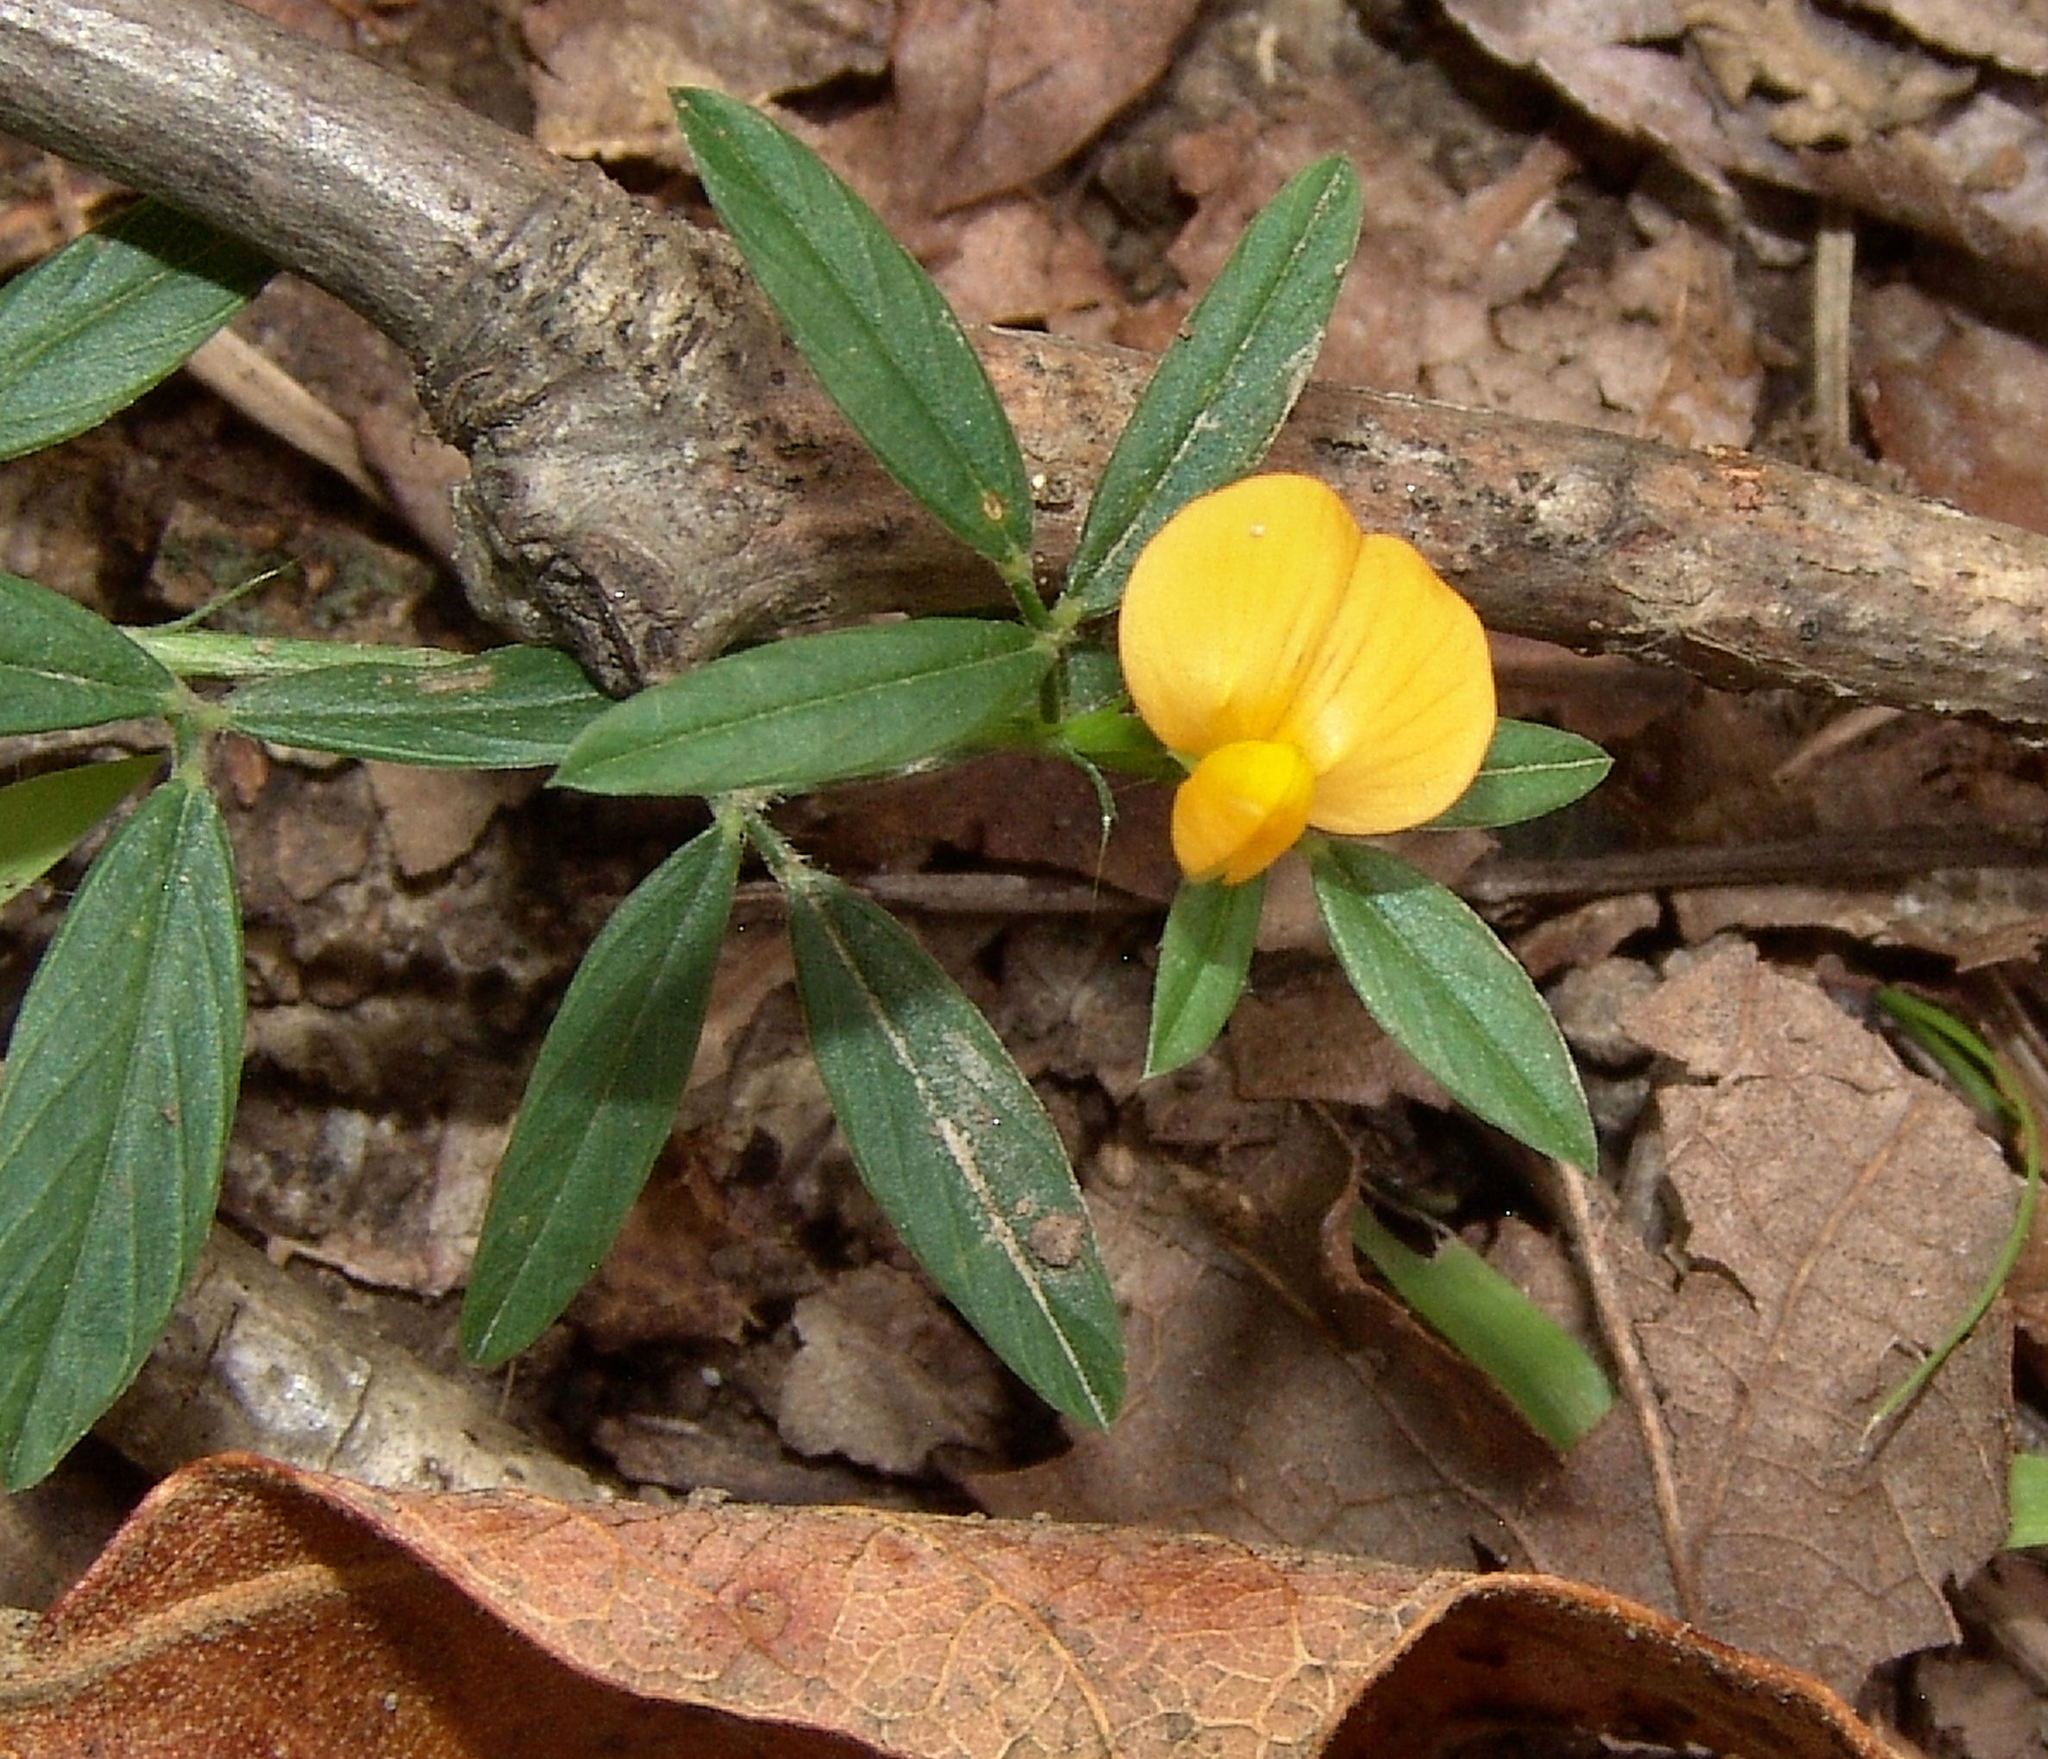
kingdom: Plantae
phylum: Tracheophyta
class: Magnoliopsida
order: Fabales
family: Fabaceae
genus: Stylosanthes
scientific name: Stylosanthes biflora
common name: Two-flower pencil-flower
